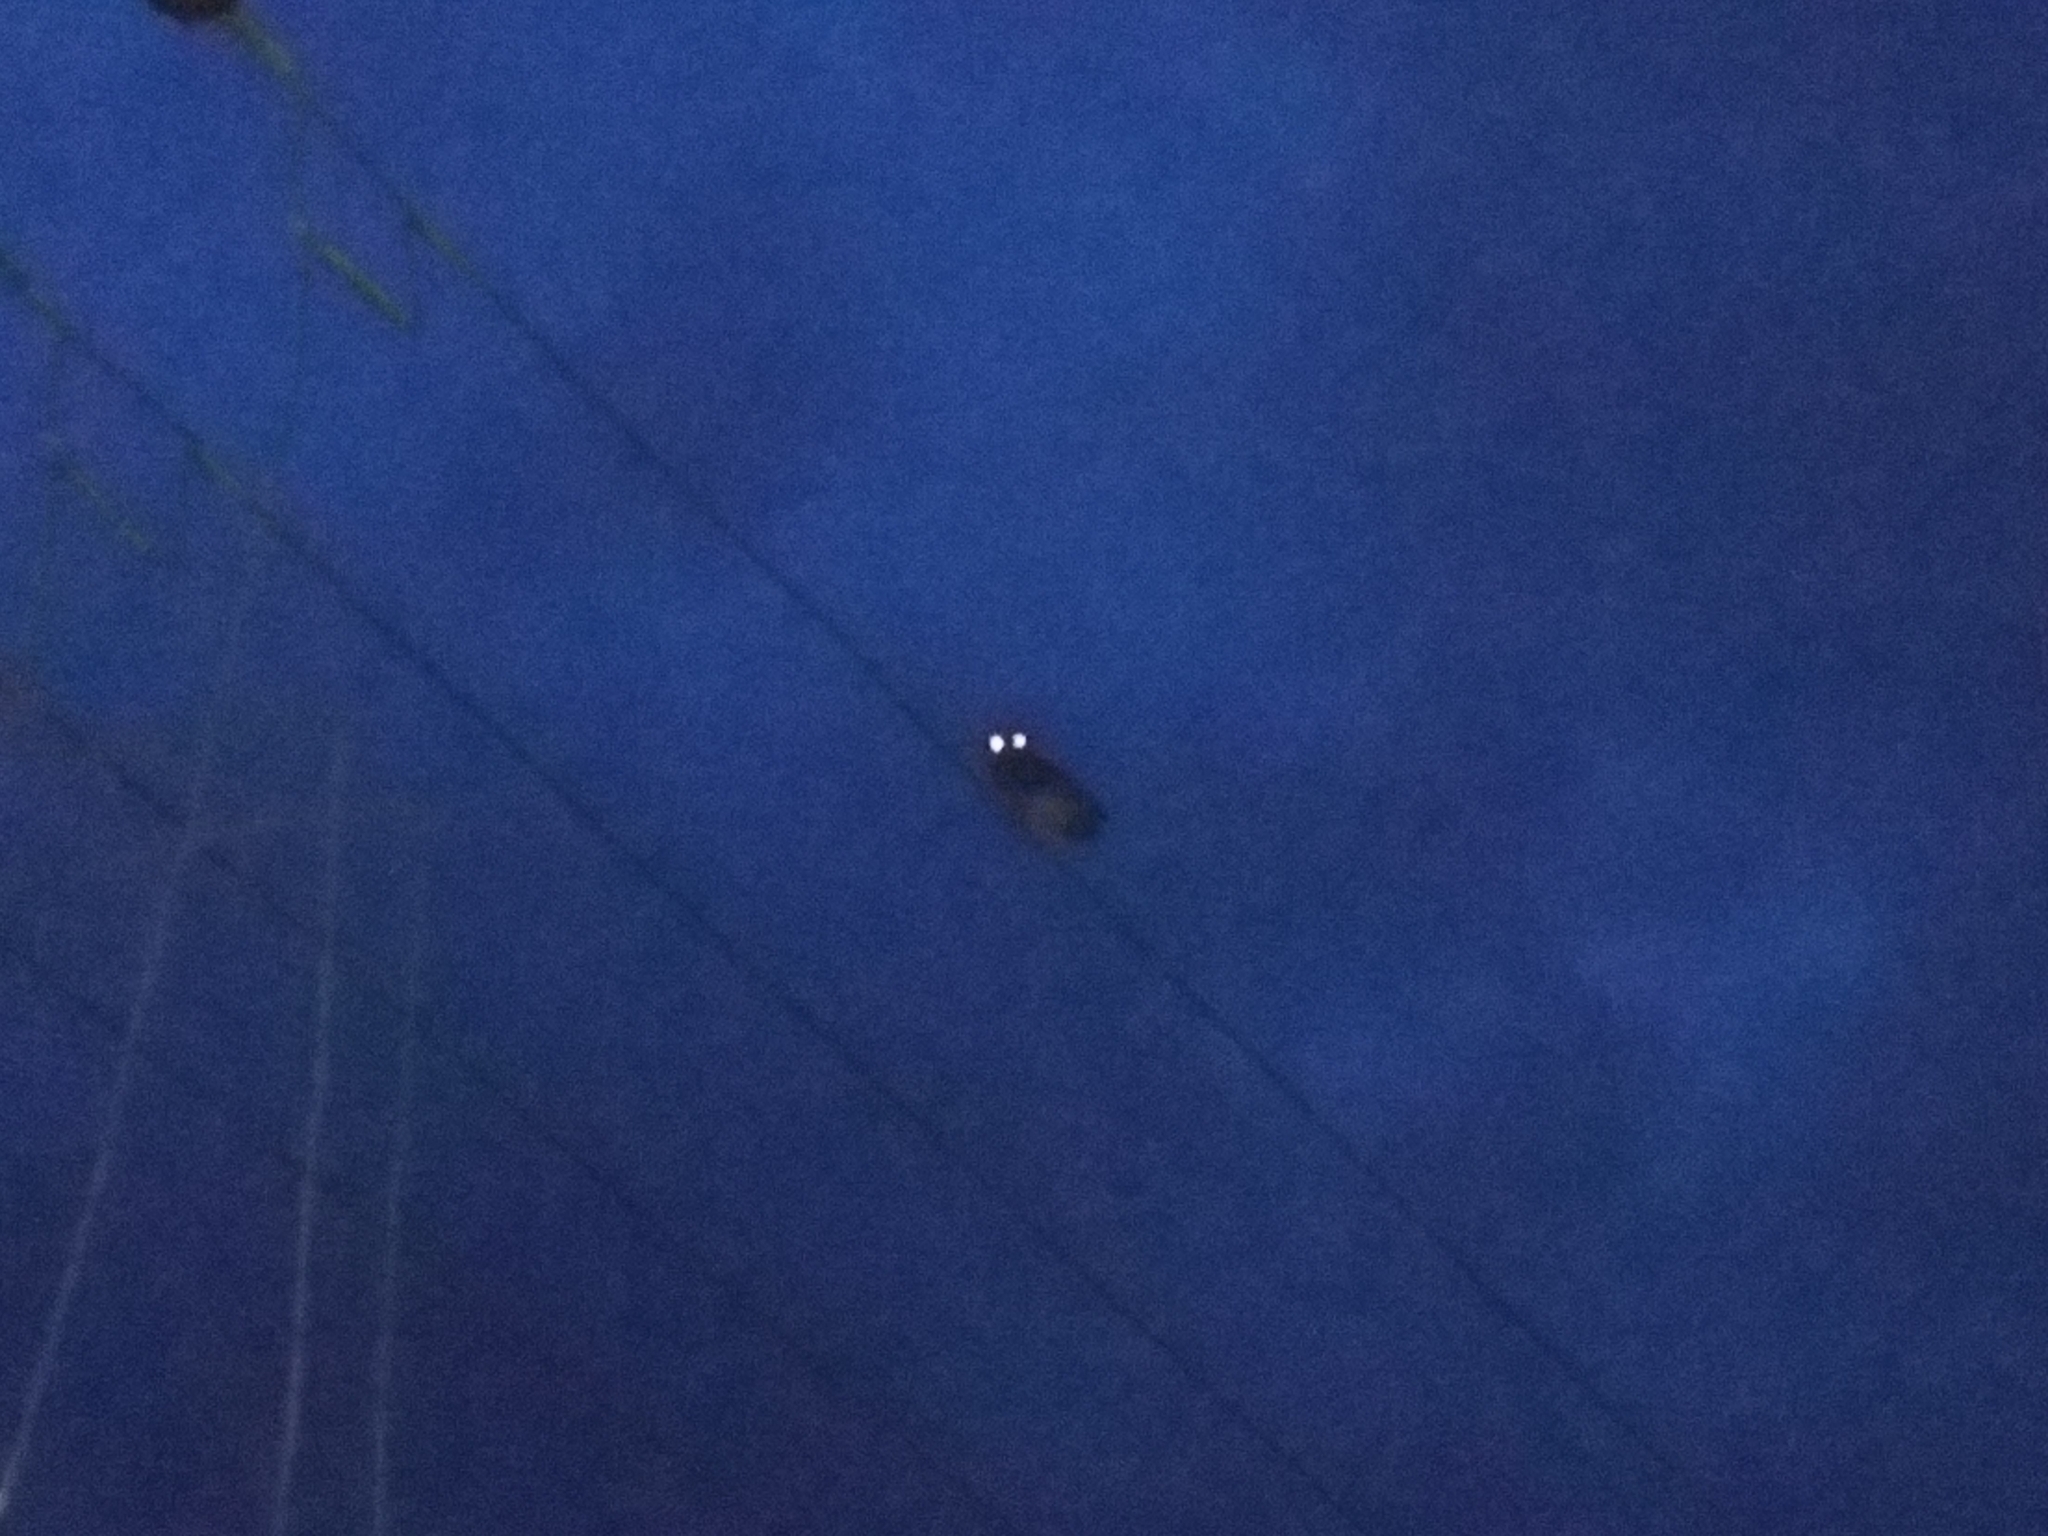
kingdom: Animalia
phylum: Chordata
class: Aves
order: Strigiformes
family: Strigidae
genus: Athene
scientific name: Athene brama
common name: Spotted owlet
